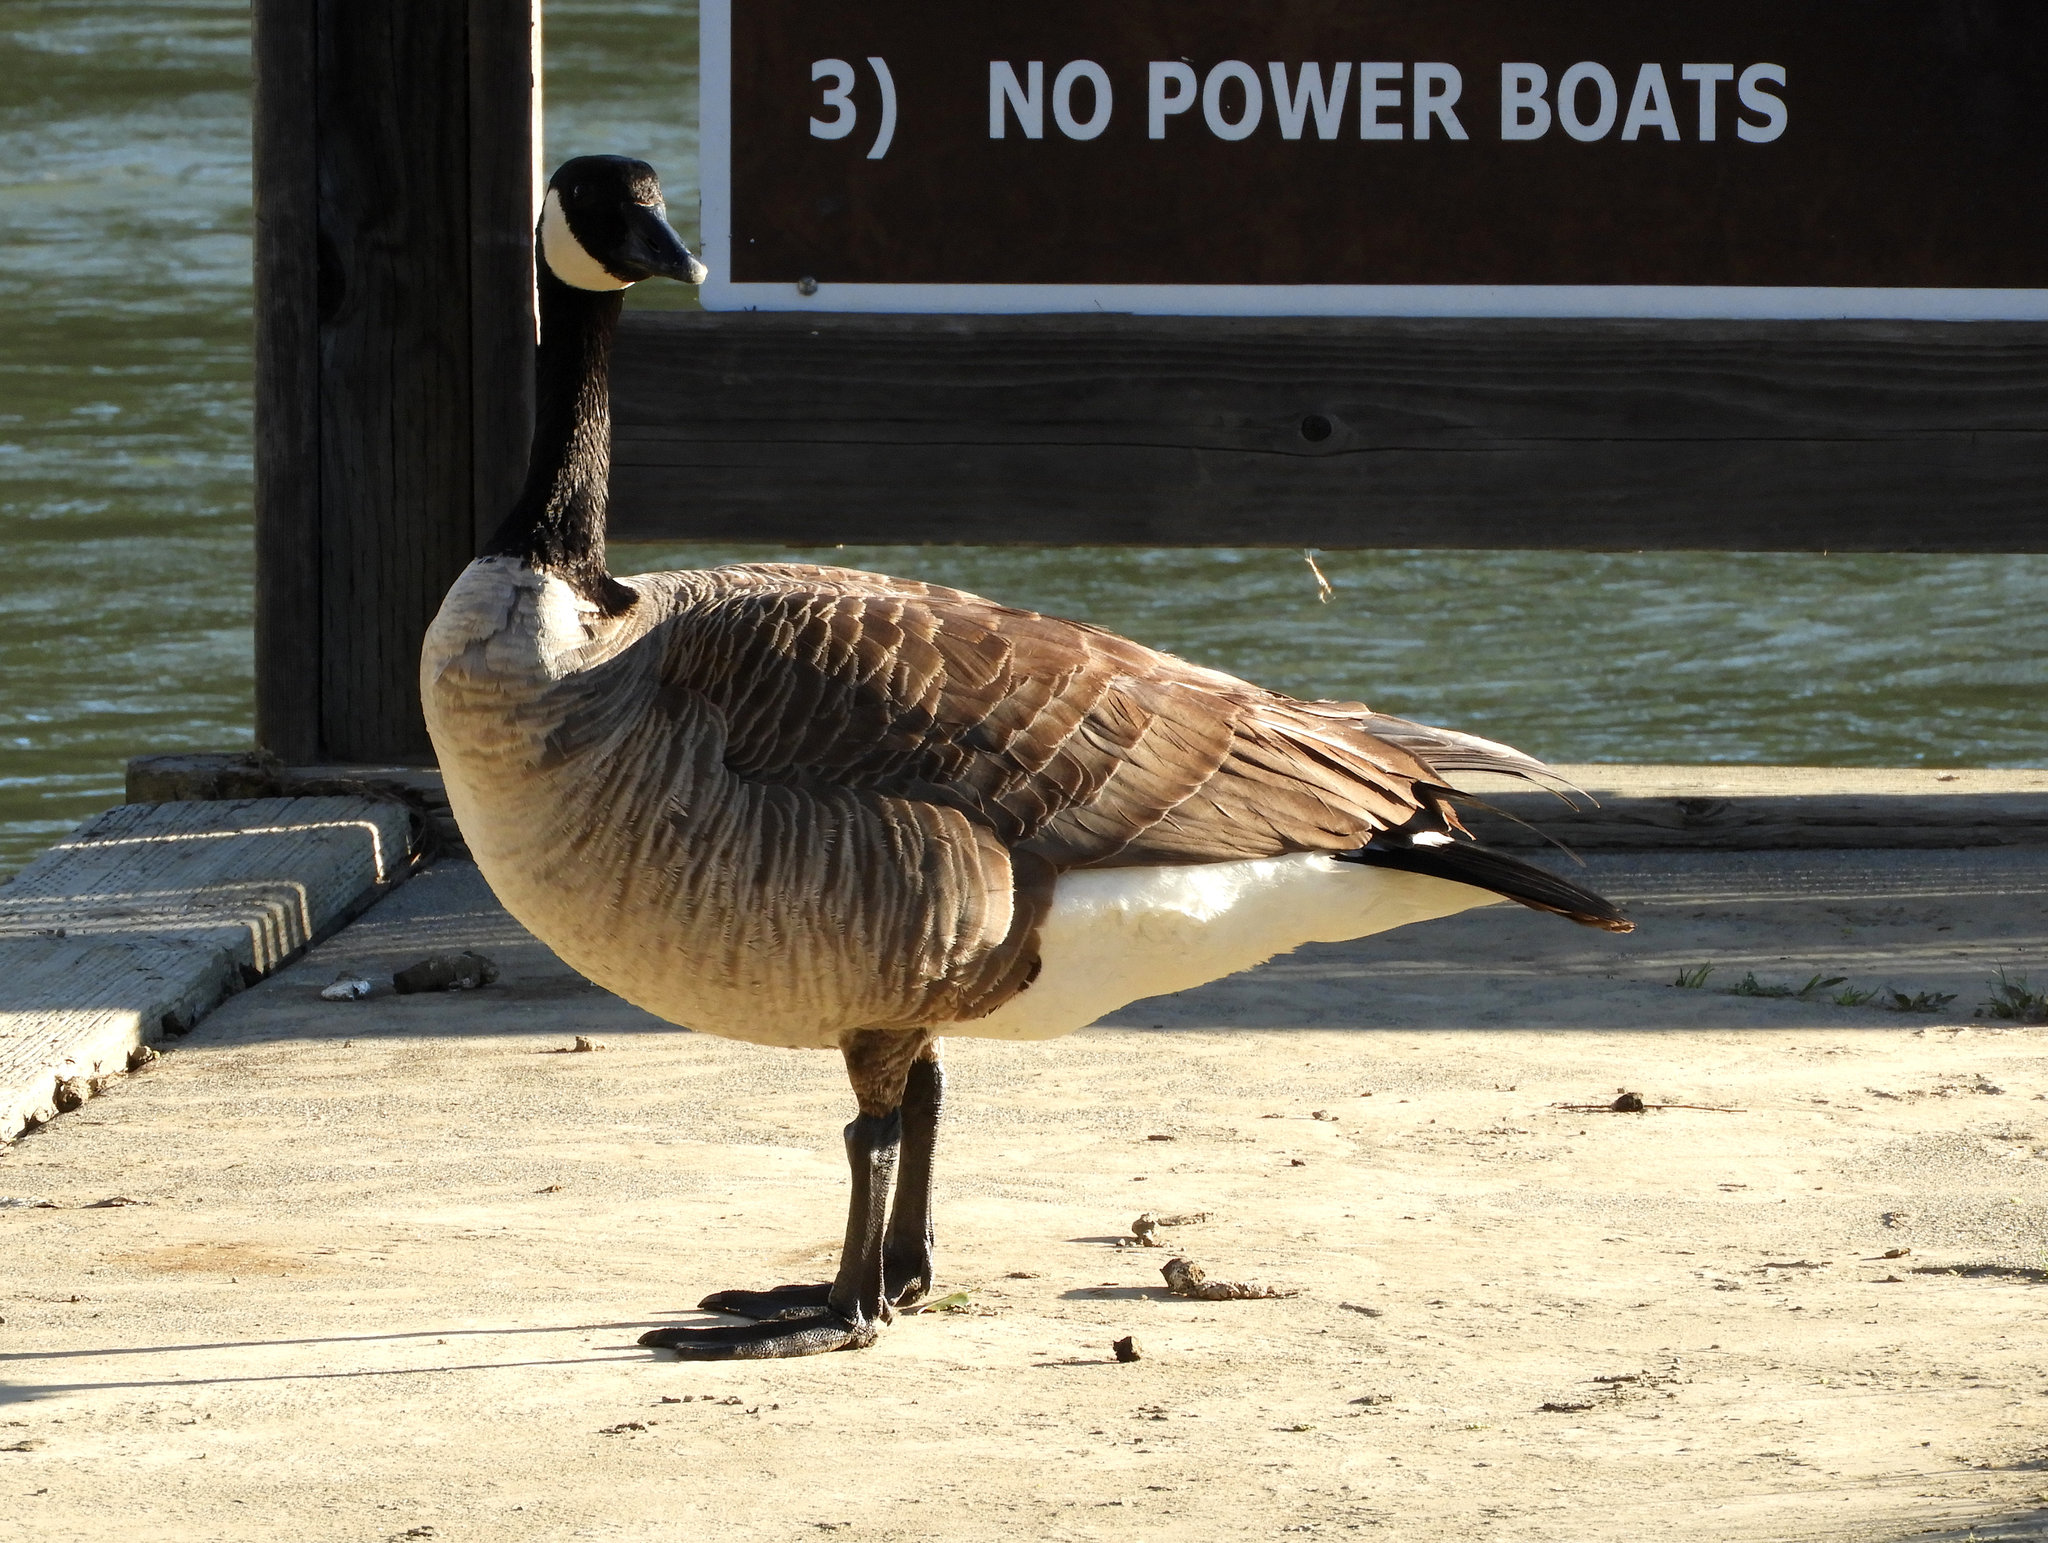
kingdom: Animalia
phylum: Chordata
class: Aves
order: Anseriformes
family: Anatidae
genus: Branta
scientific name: Branta canadensis
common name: Canada goose
